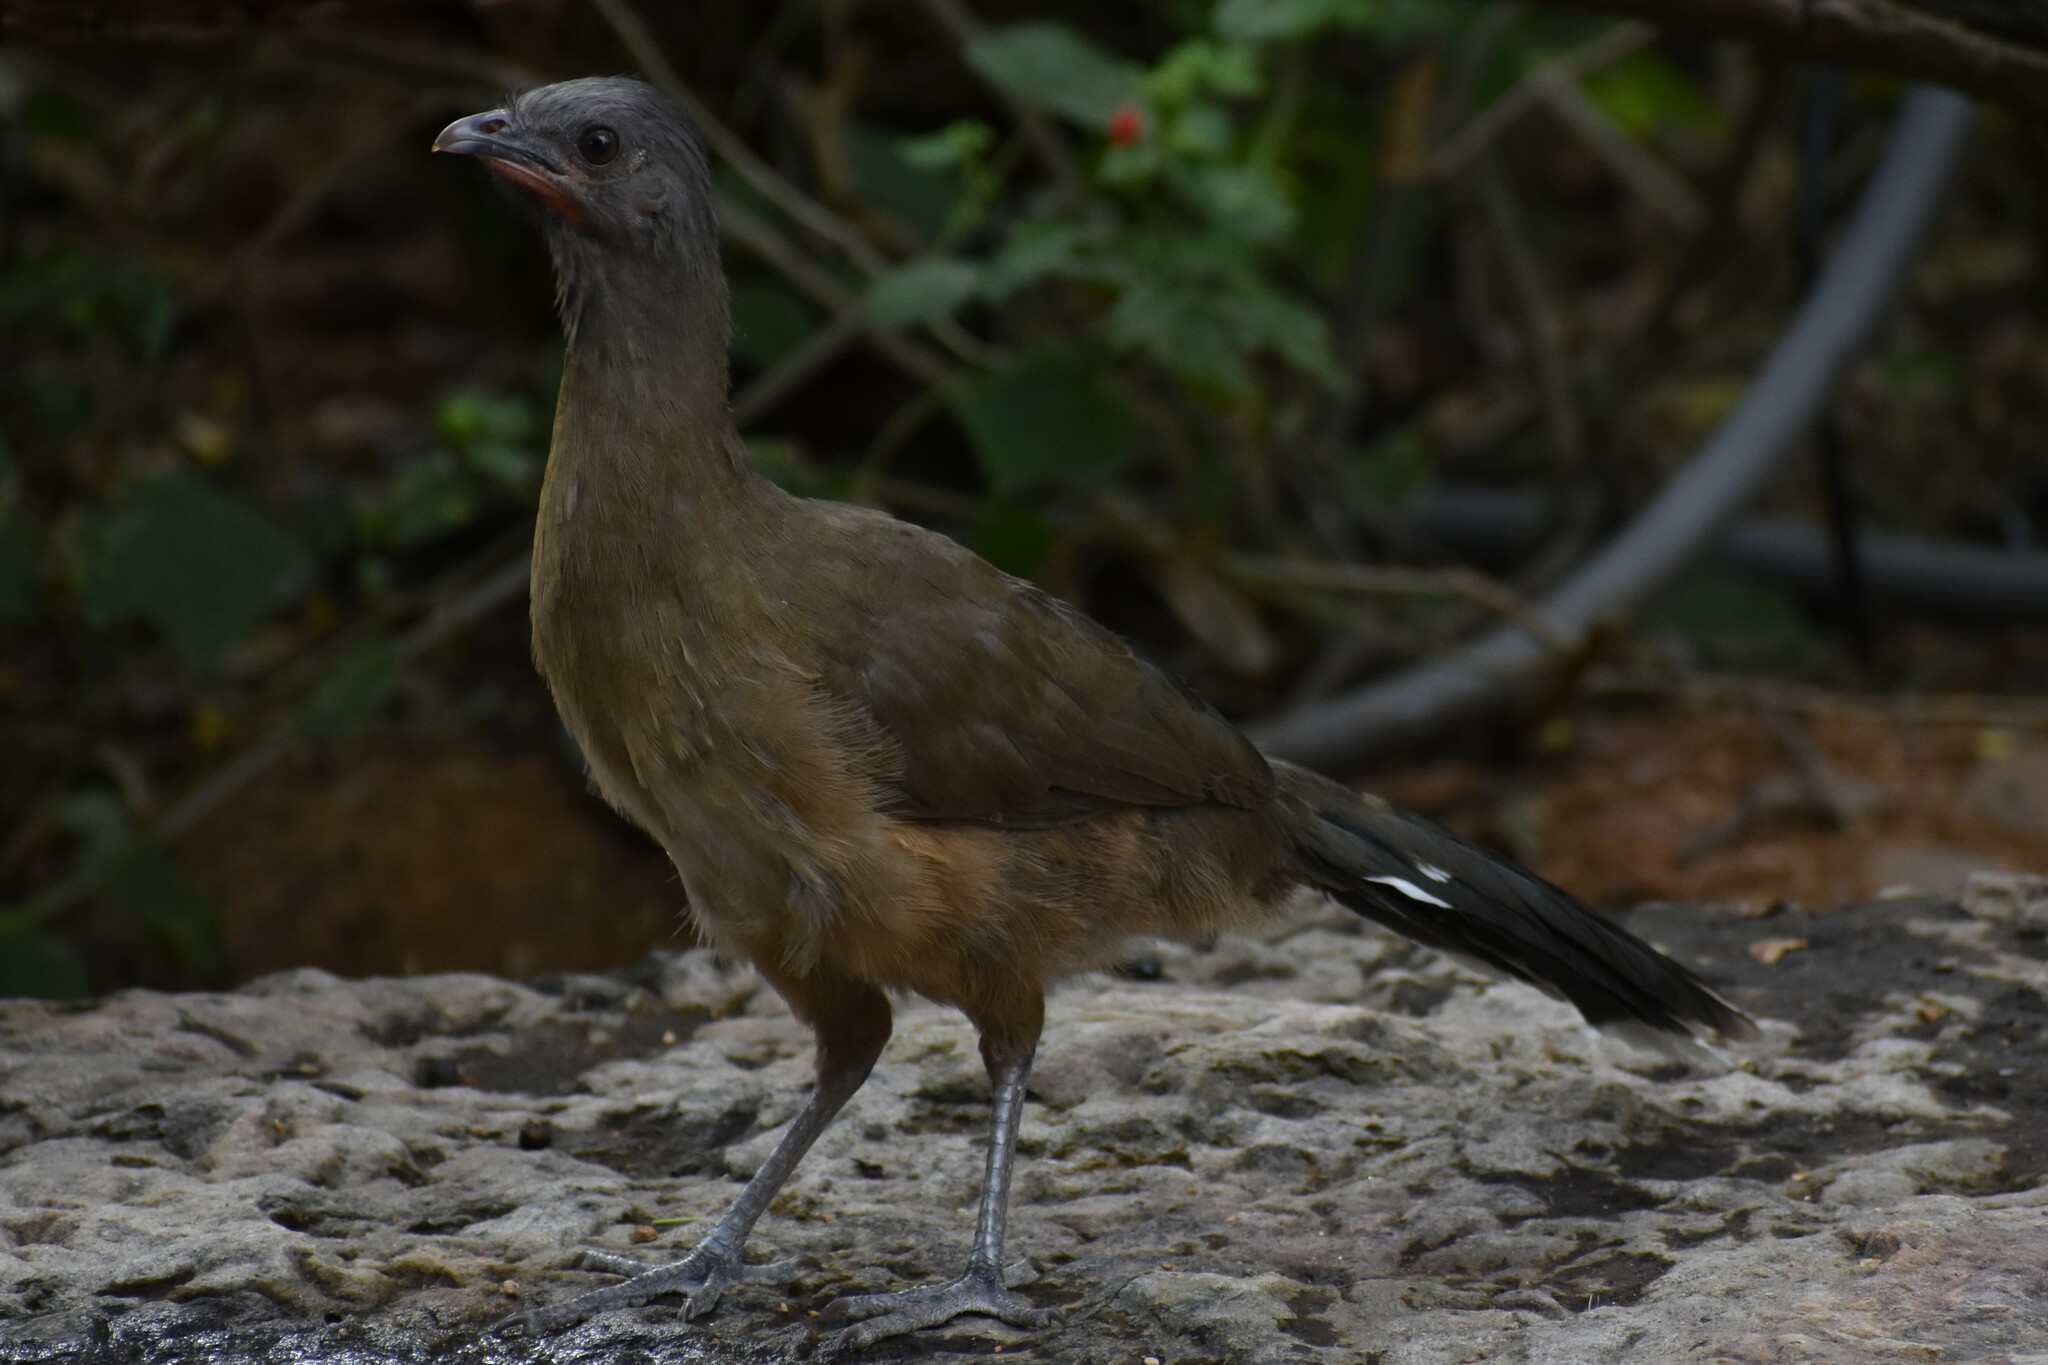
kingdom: Animalia
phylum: Chordata
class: Aves
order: Galliformes
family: Cracidae
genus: Ortalis
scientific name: Ortalis vetula
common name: Plain chachalaca
